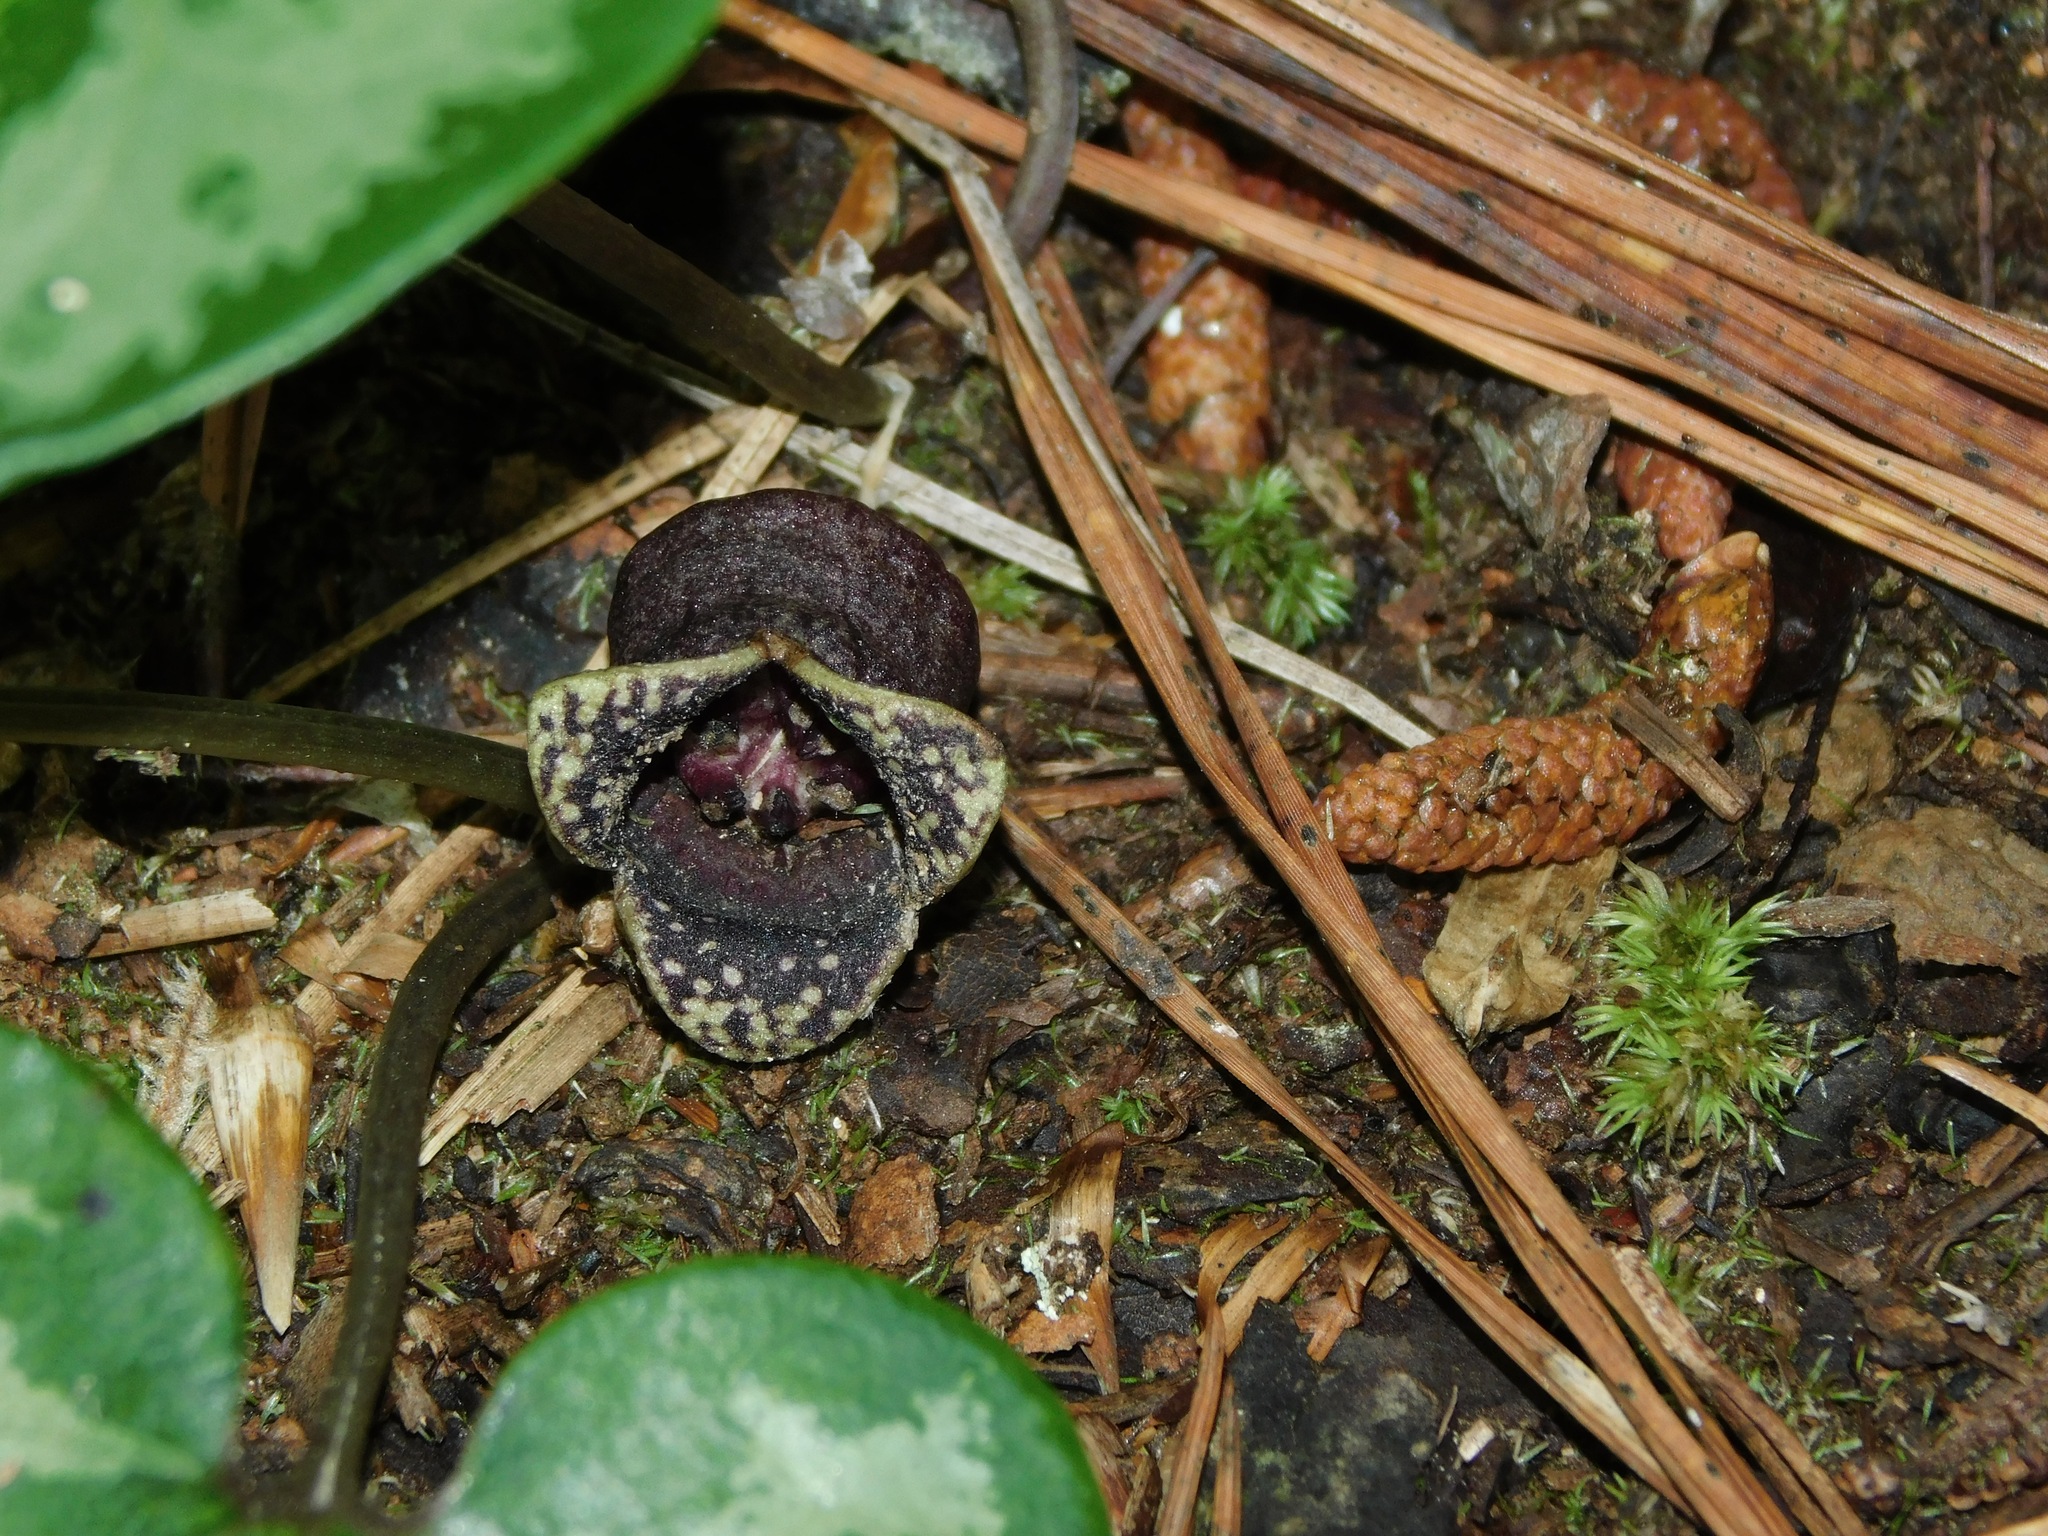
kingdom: Plantae
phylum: Tracheophyta
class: Magnoliopsida
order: Piperales
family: Aristolochiaceae
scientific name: Aristolochiaceae
